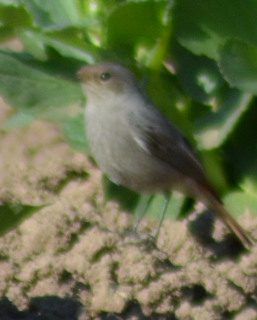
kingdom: Animalia
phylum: Chordata
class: Aves
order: Passeriformes
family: Muscicapidae
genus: Phoenicurus
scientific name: Phoenicurus ochruros
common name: Black redstart
